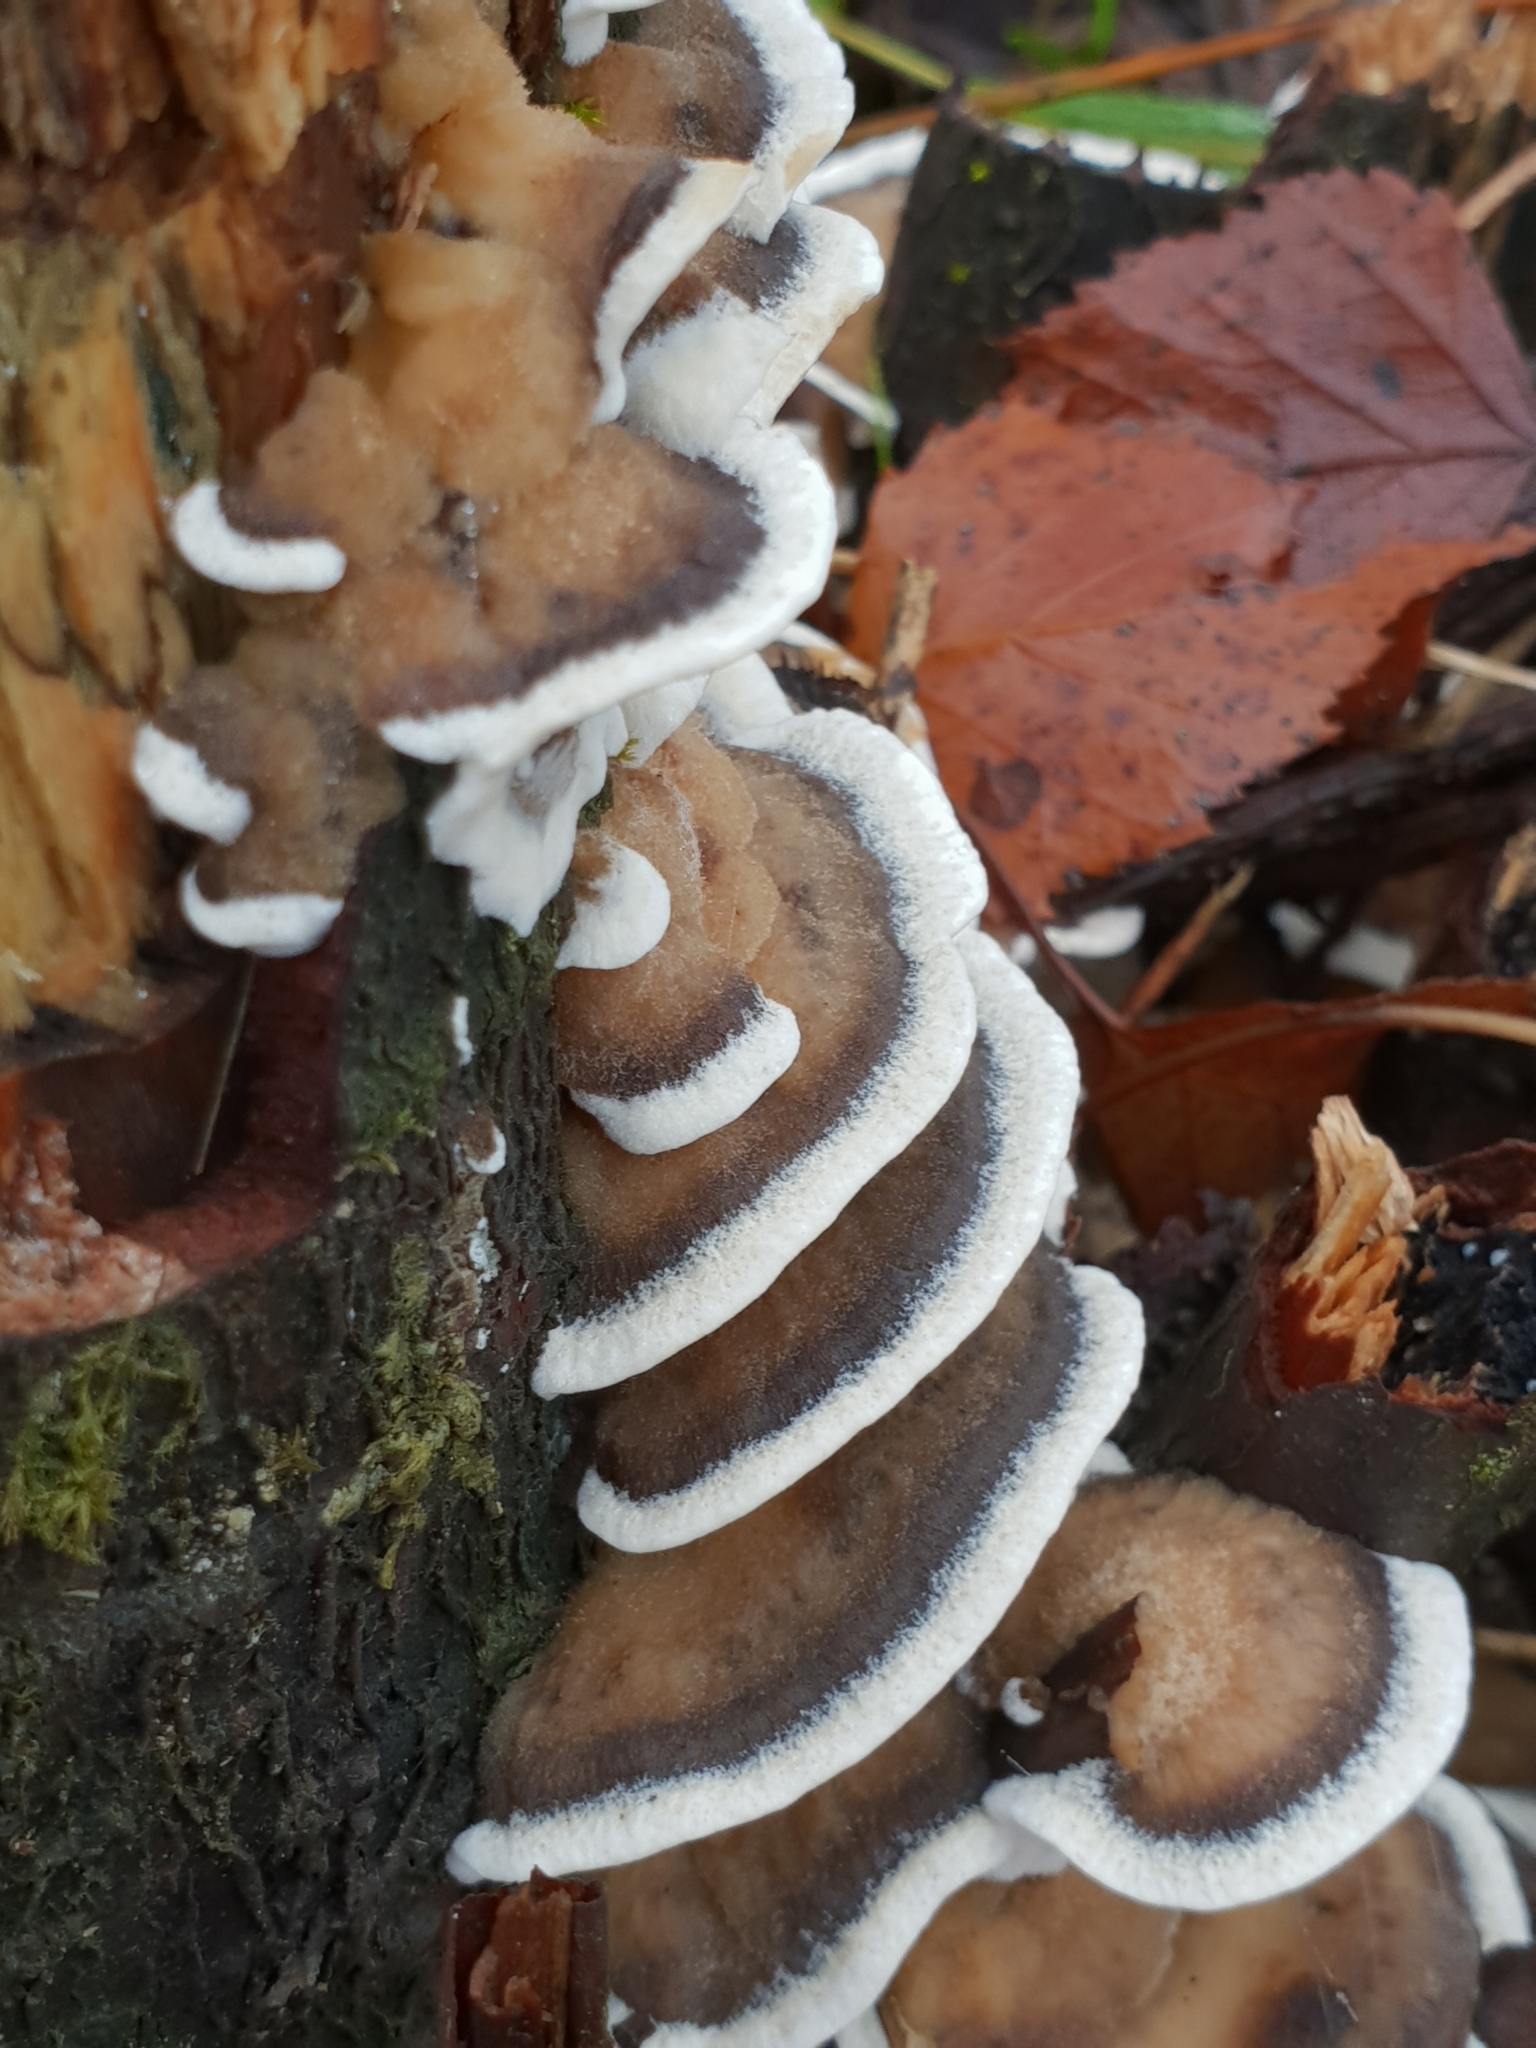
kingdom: Fungi
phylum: Basidiomycota
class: Agaricomycetes
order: Polyporales
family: Phanerochaetaceae
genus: Bjerkandera
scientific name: Bjerkandera adusta
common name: Smoky bracket
